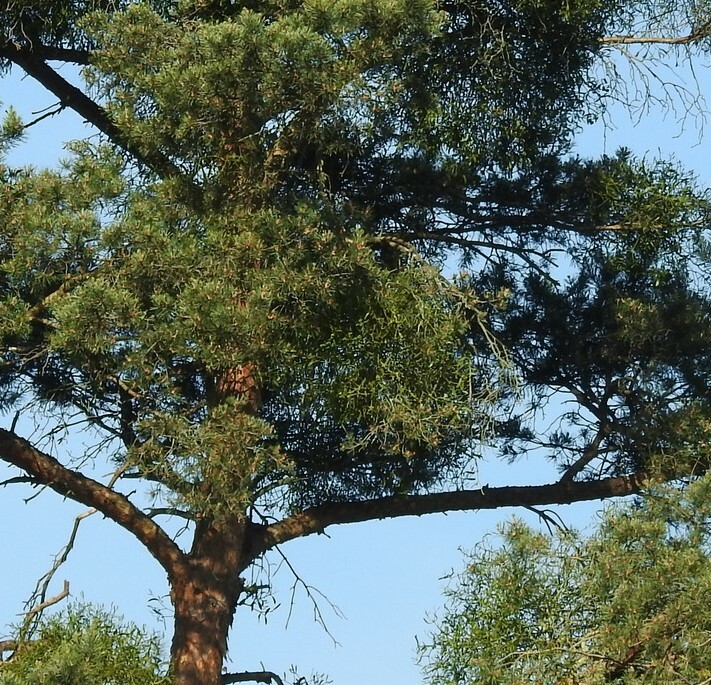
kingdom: Plantae
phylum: Tracheophyta
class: Magnoliopsida
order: Santalales
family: Viscaceae
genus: Viscum
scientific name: Viscum laxum
